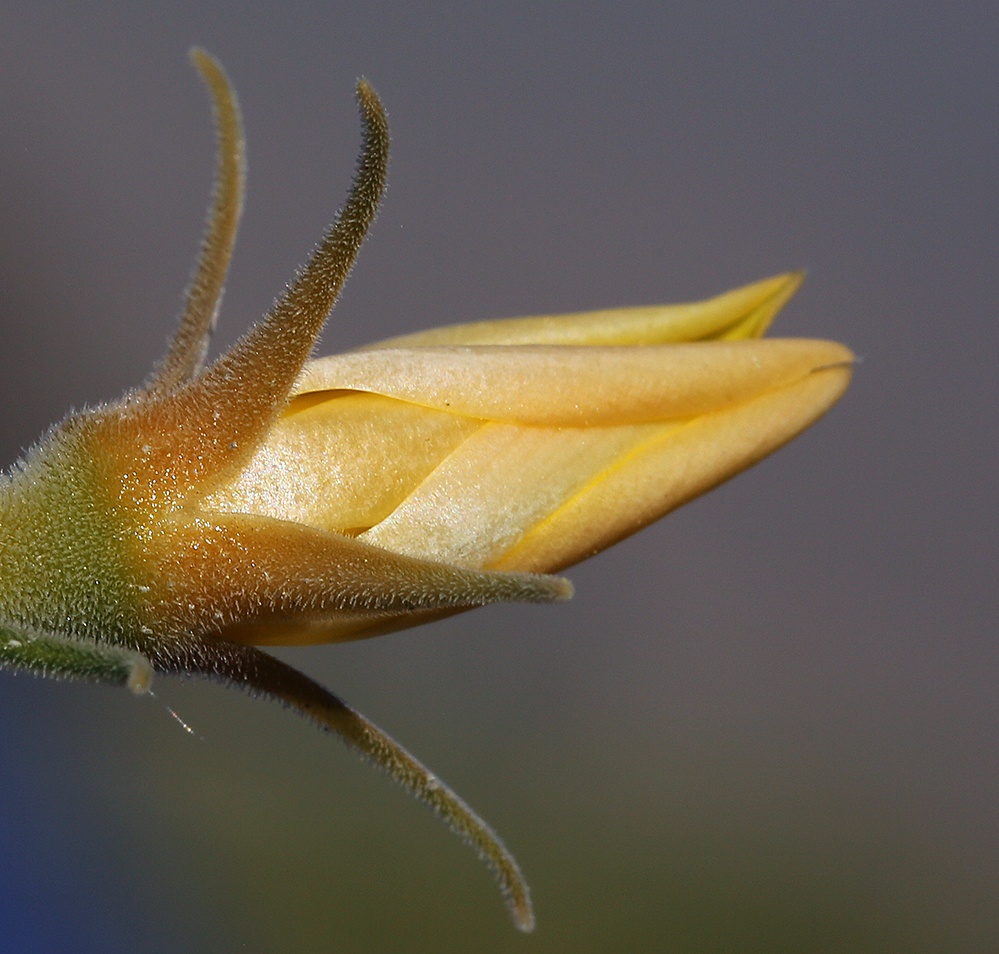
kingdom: Plantae
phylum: Tracheophyta
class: Magnoliopsida
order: Cornales
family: Loasaceae
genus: Mentzelia
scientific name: Mentzelia inyoensis
